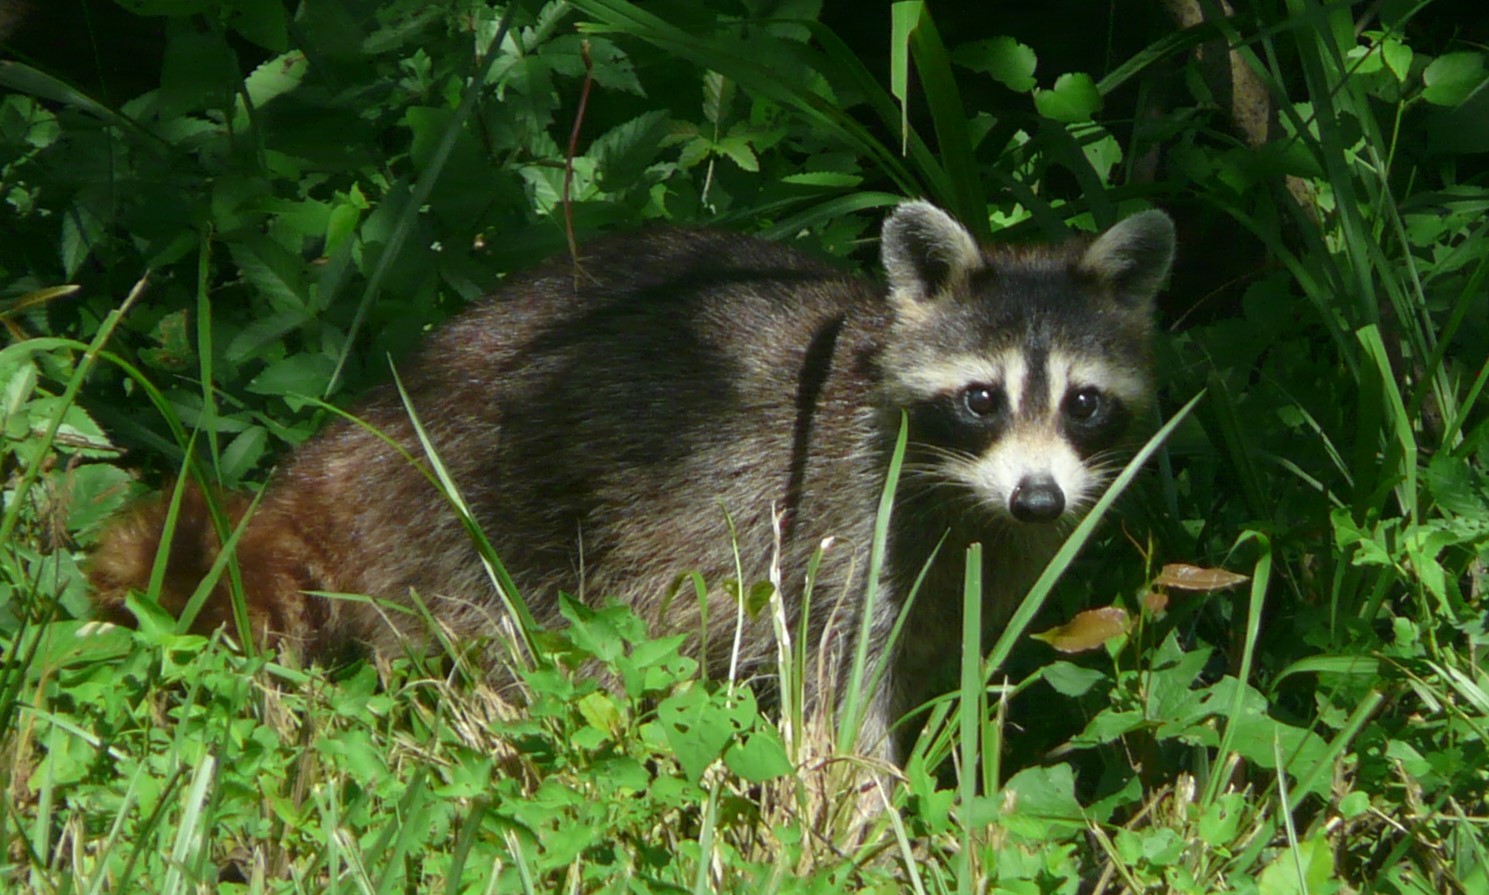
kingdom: Animalia
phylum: Chordata
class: Mammalia
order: Carnivora
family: Procyonidae
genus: Procyon
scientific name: Procyon lotor
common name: Raccoon
